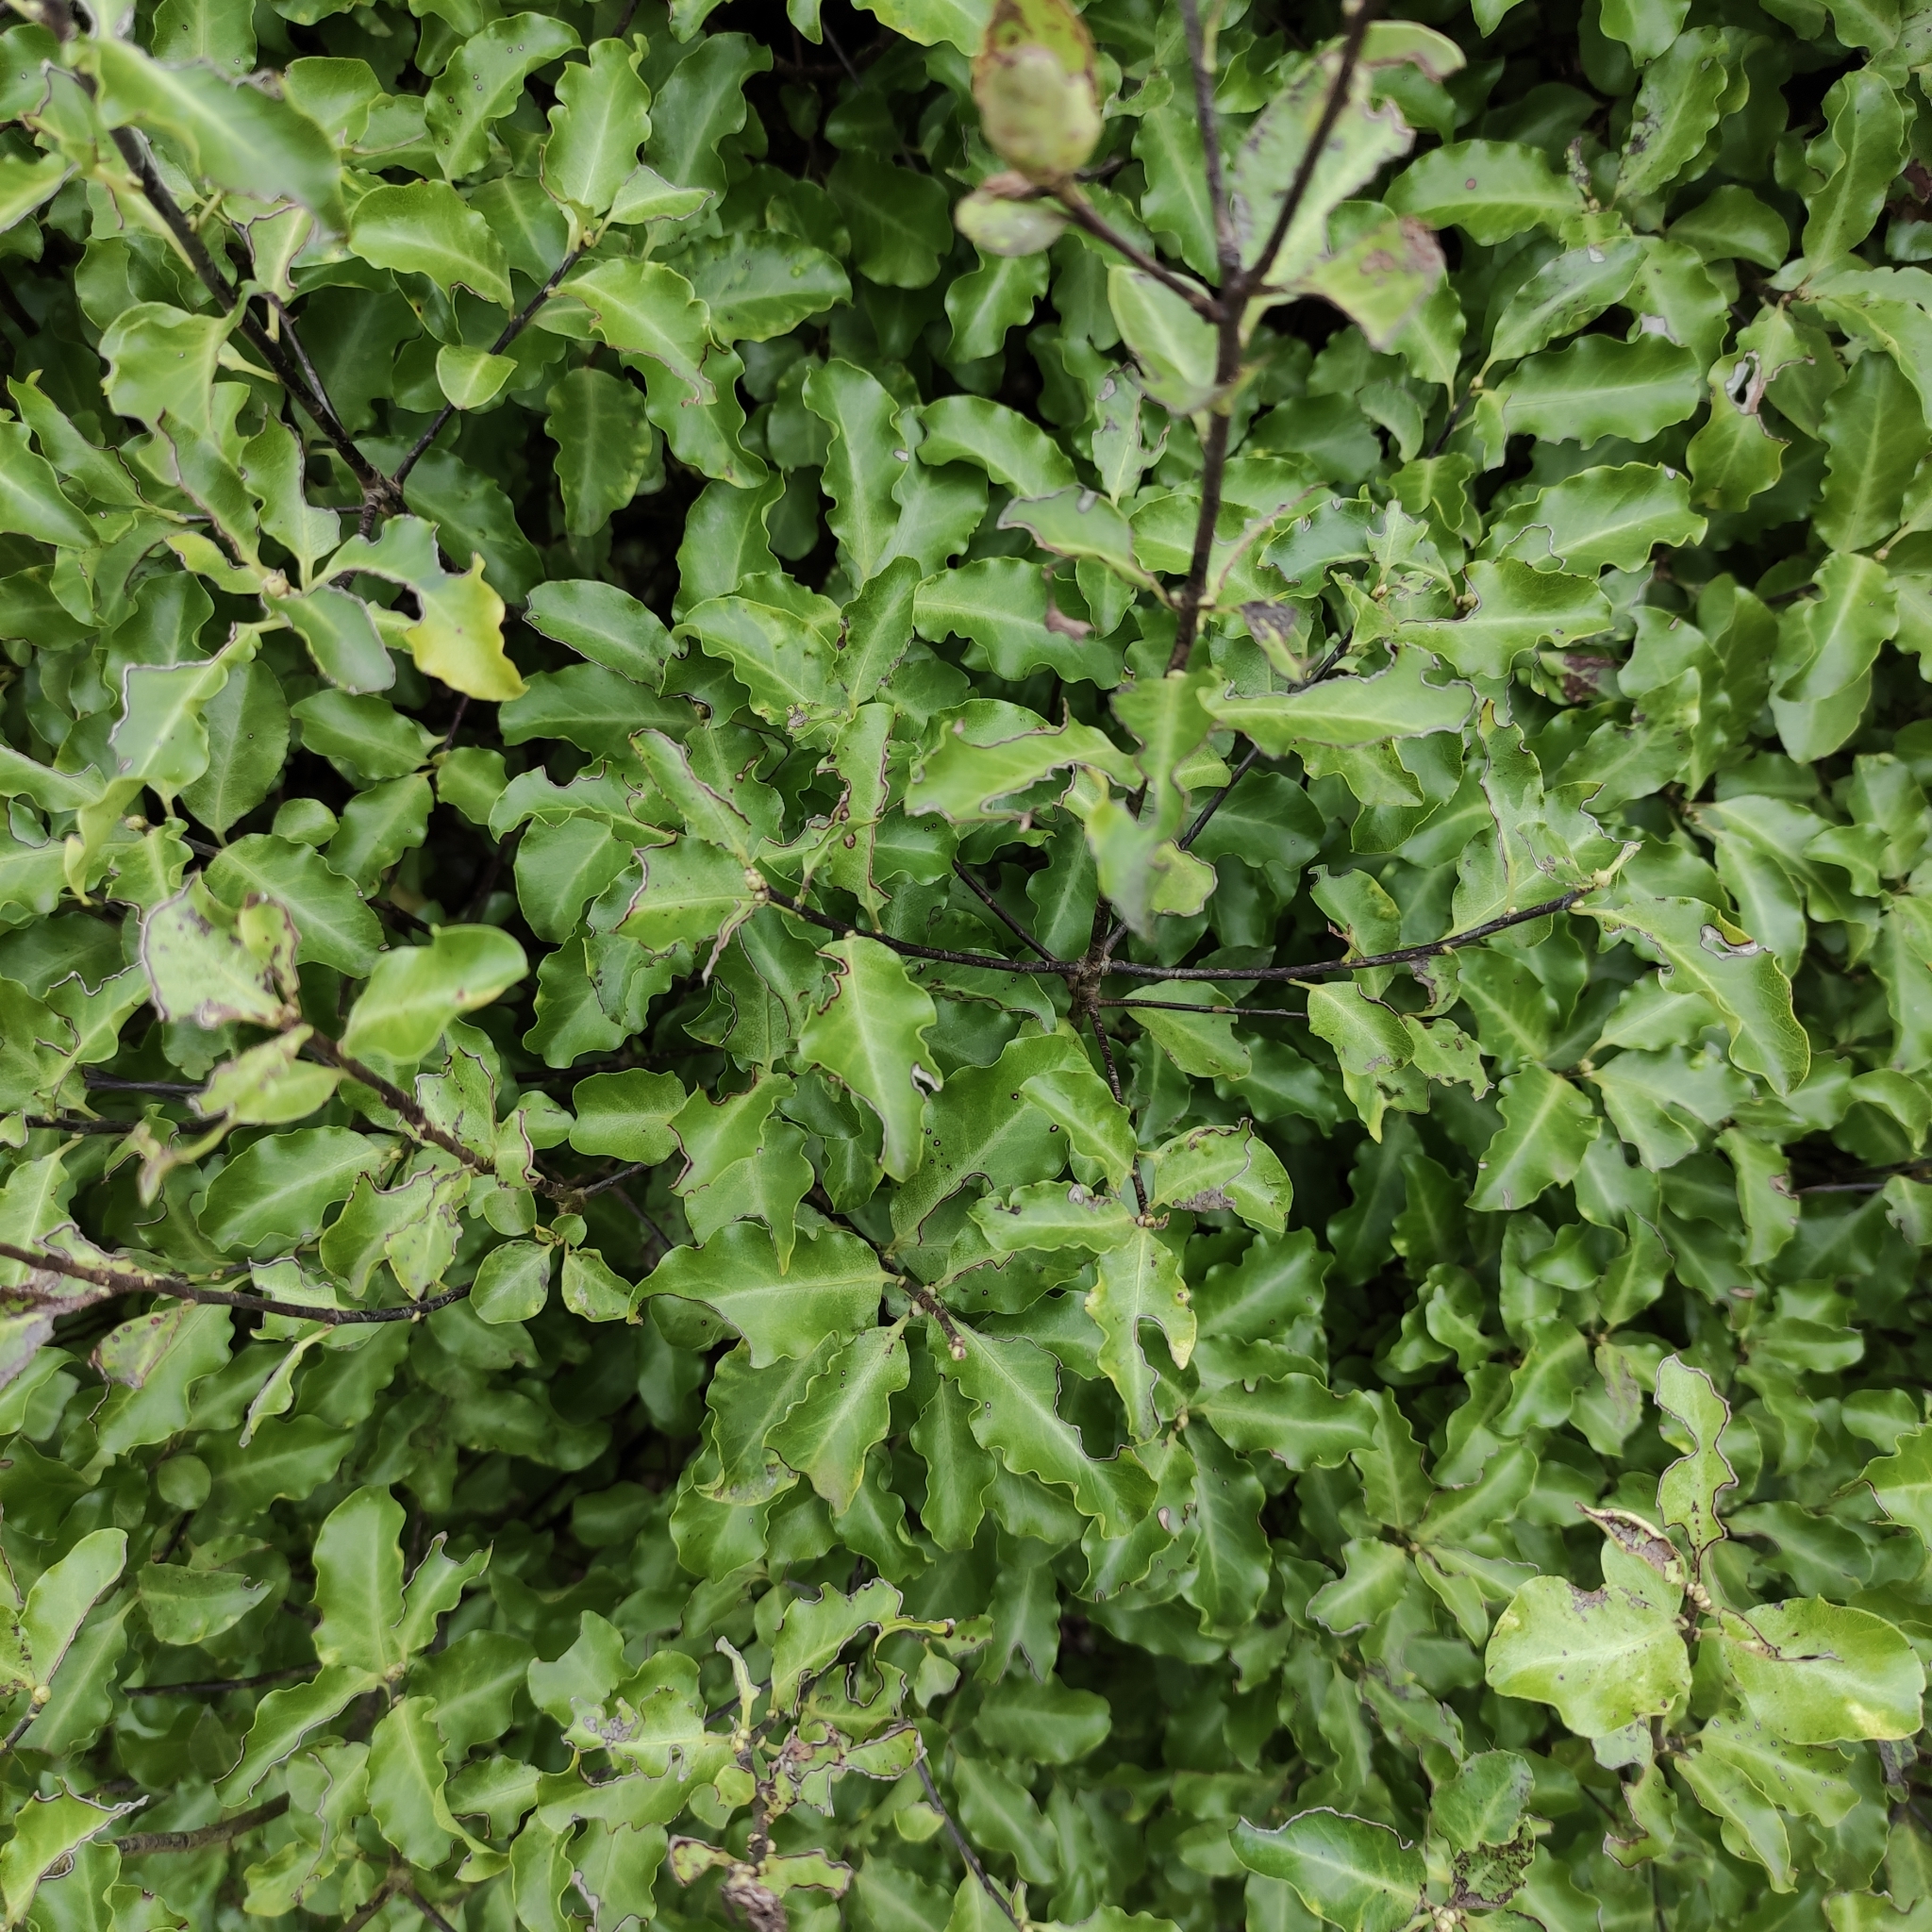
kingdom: Plantae
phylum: Tracheophyta
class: Magnoliopsida
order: Apiales
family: Pittosporaceae
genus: Pittosporum
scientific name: Pittosporum tenuifolium
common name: Kohuhu
